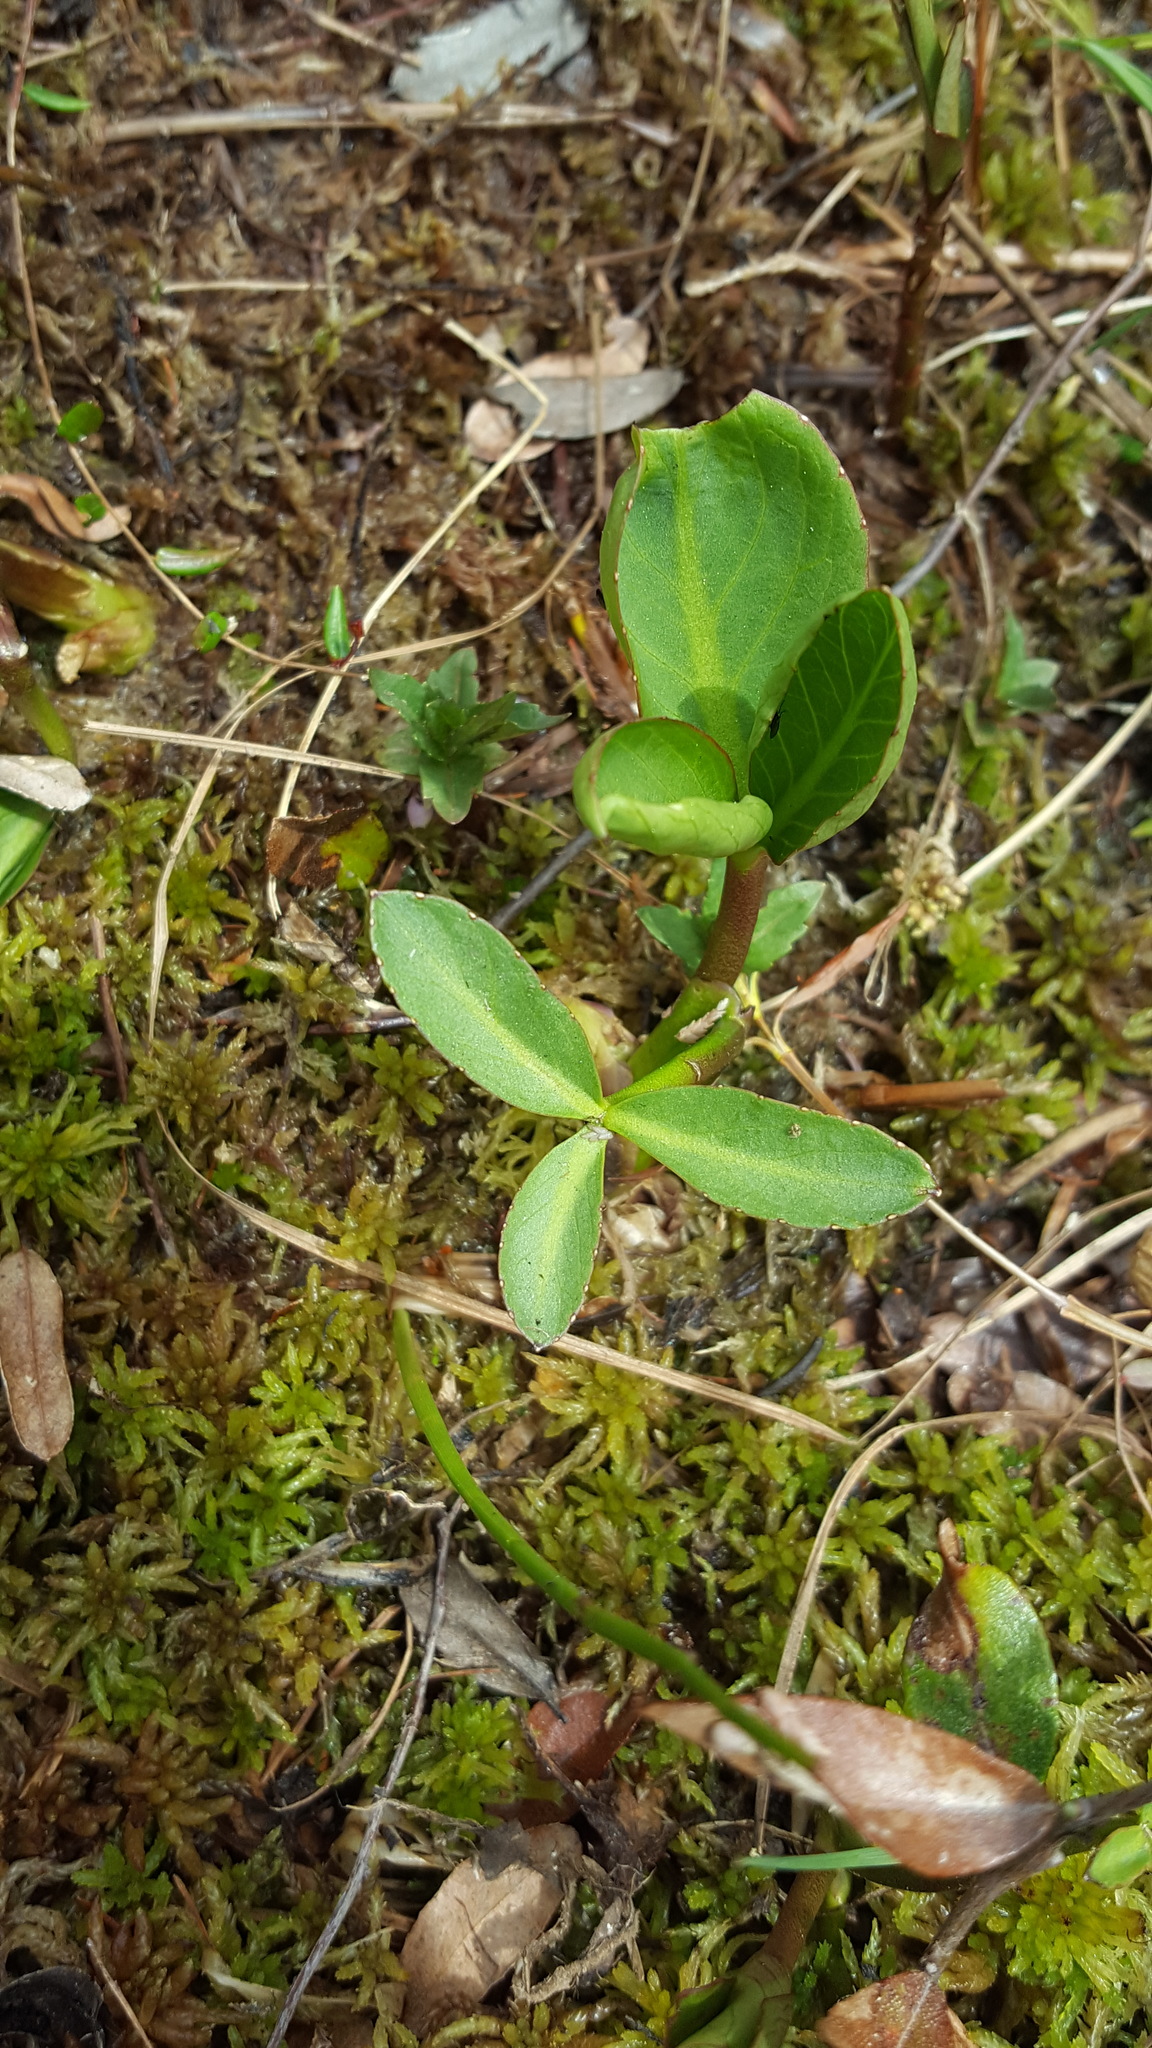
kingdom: Plantae
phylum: Tracheophyta
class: Magnoliopsida
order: Asterales
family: Menyanthaceae
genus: Menyanthes
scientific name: Menyanthes trifoliata
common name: Bogbean
